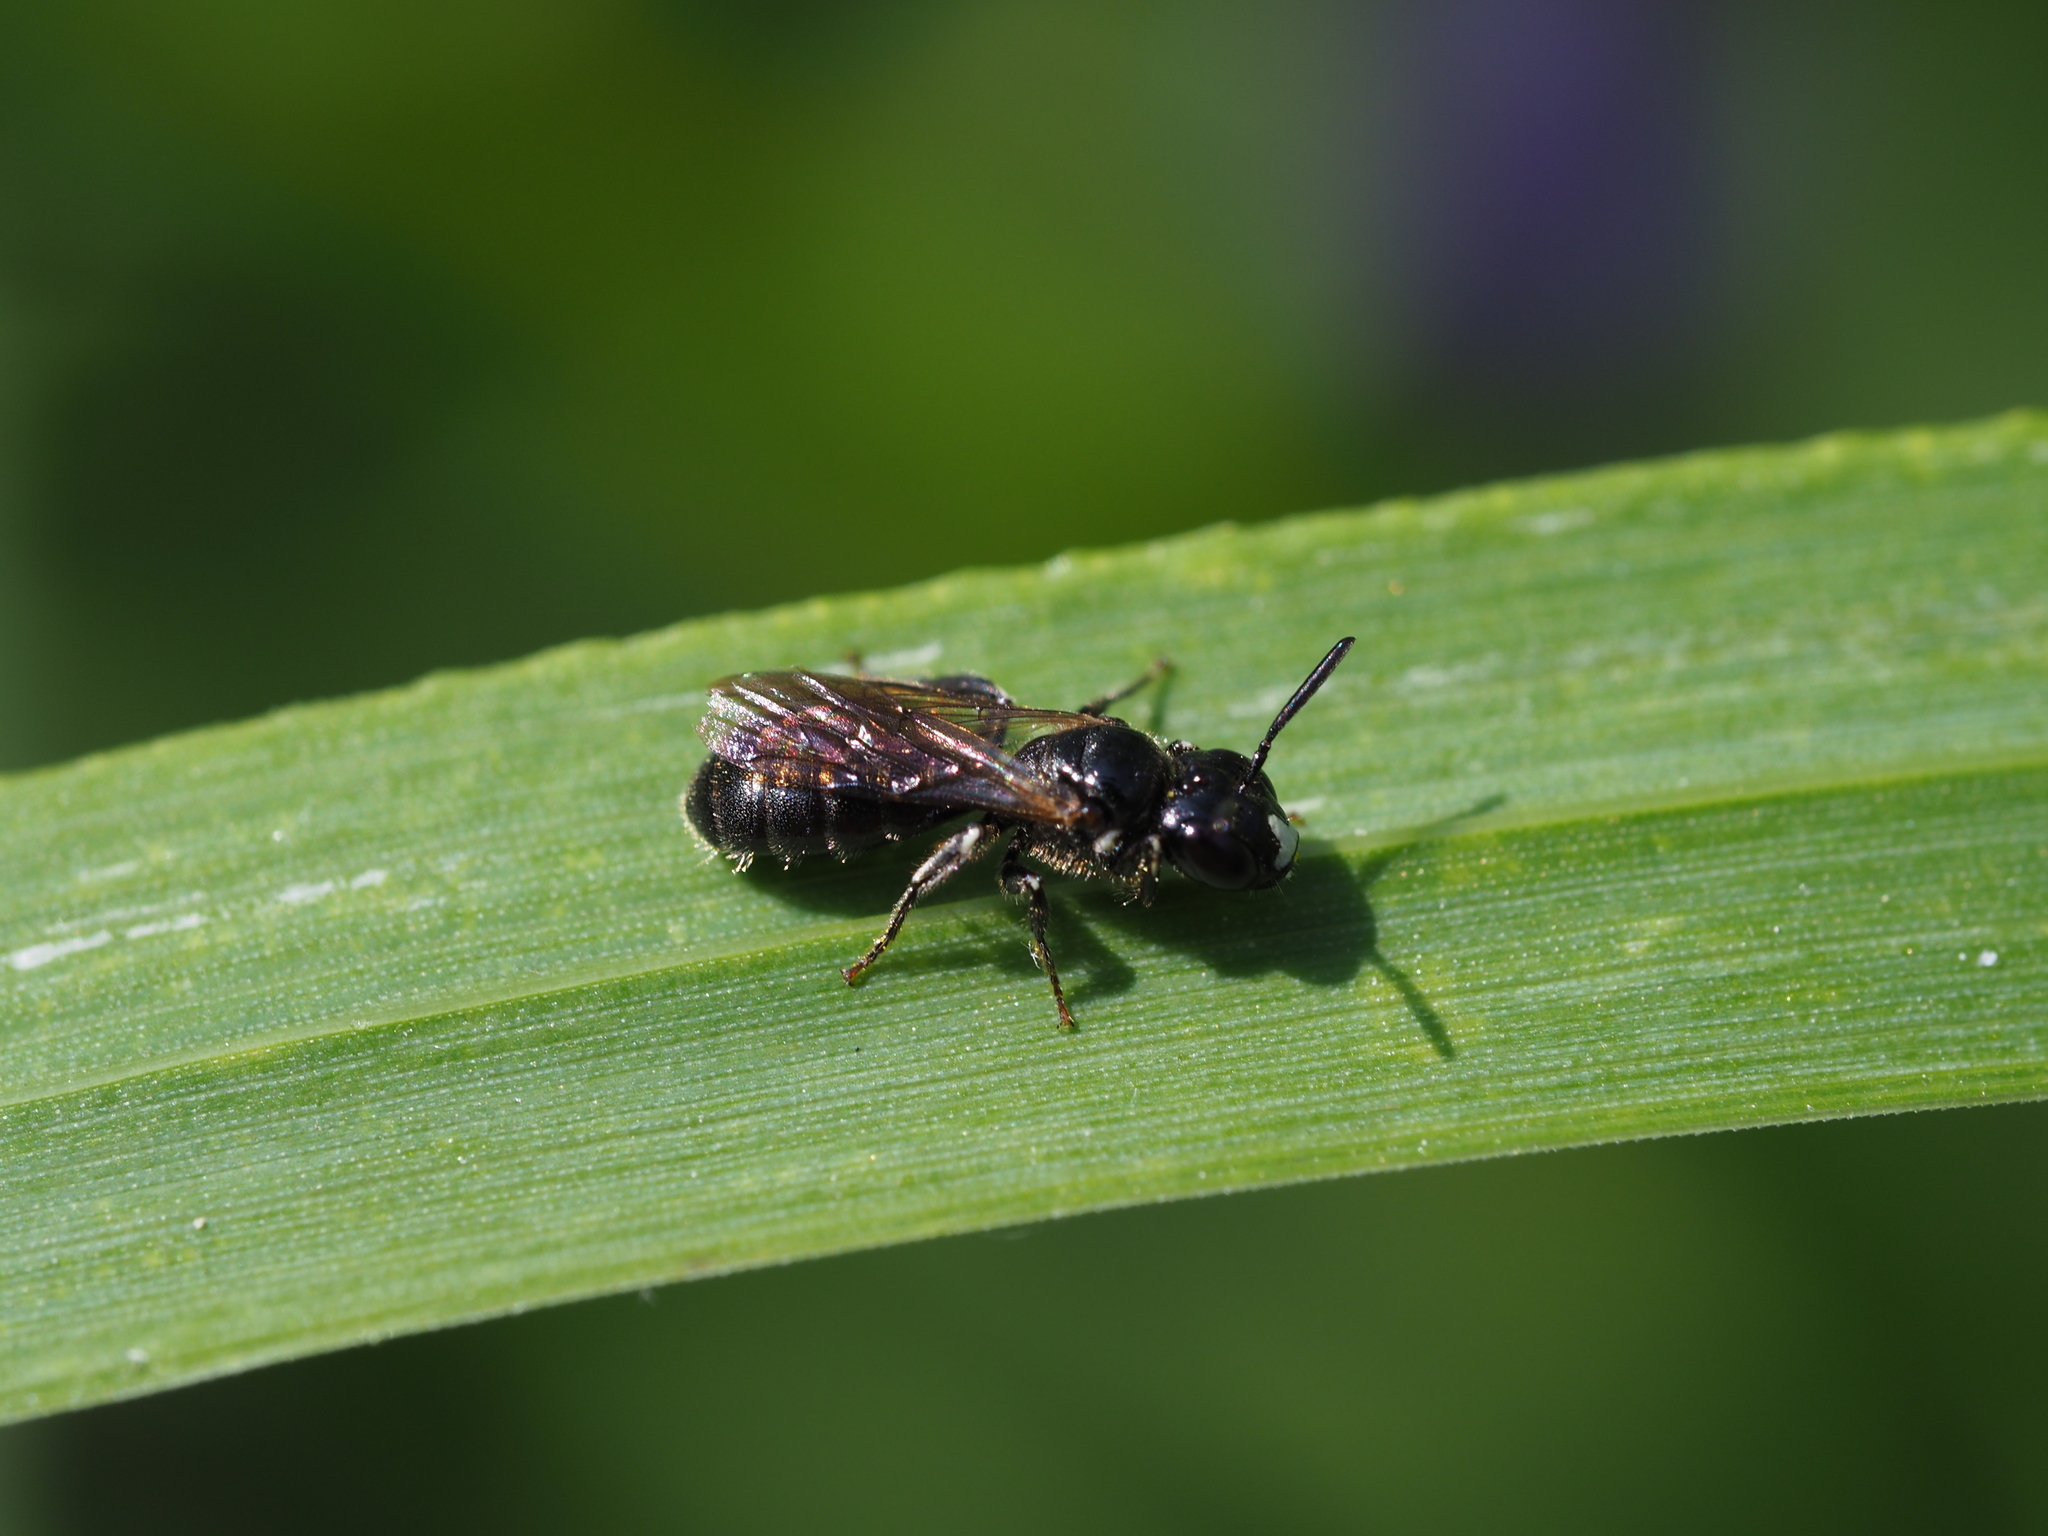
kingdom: Animalia
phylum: Arthropoda
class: Insecta
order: Hymenoptera
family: Apidae
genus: Ceratina
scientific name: Ceratina cucurbitina
